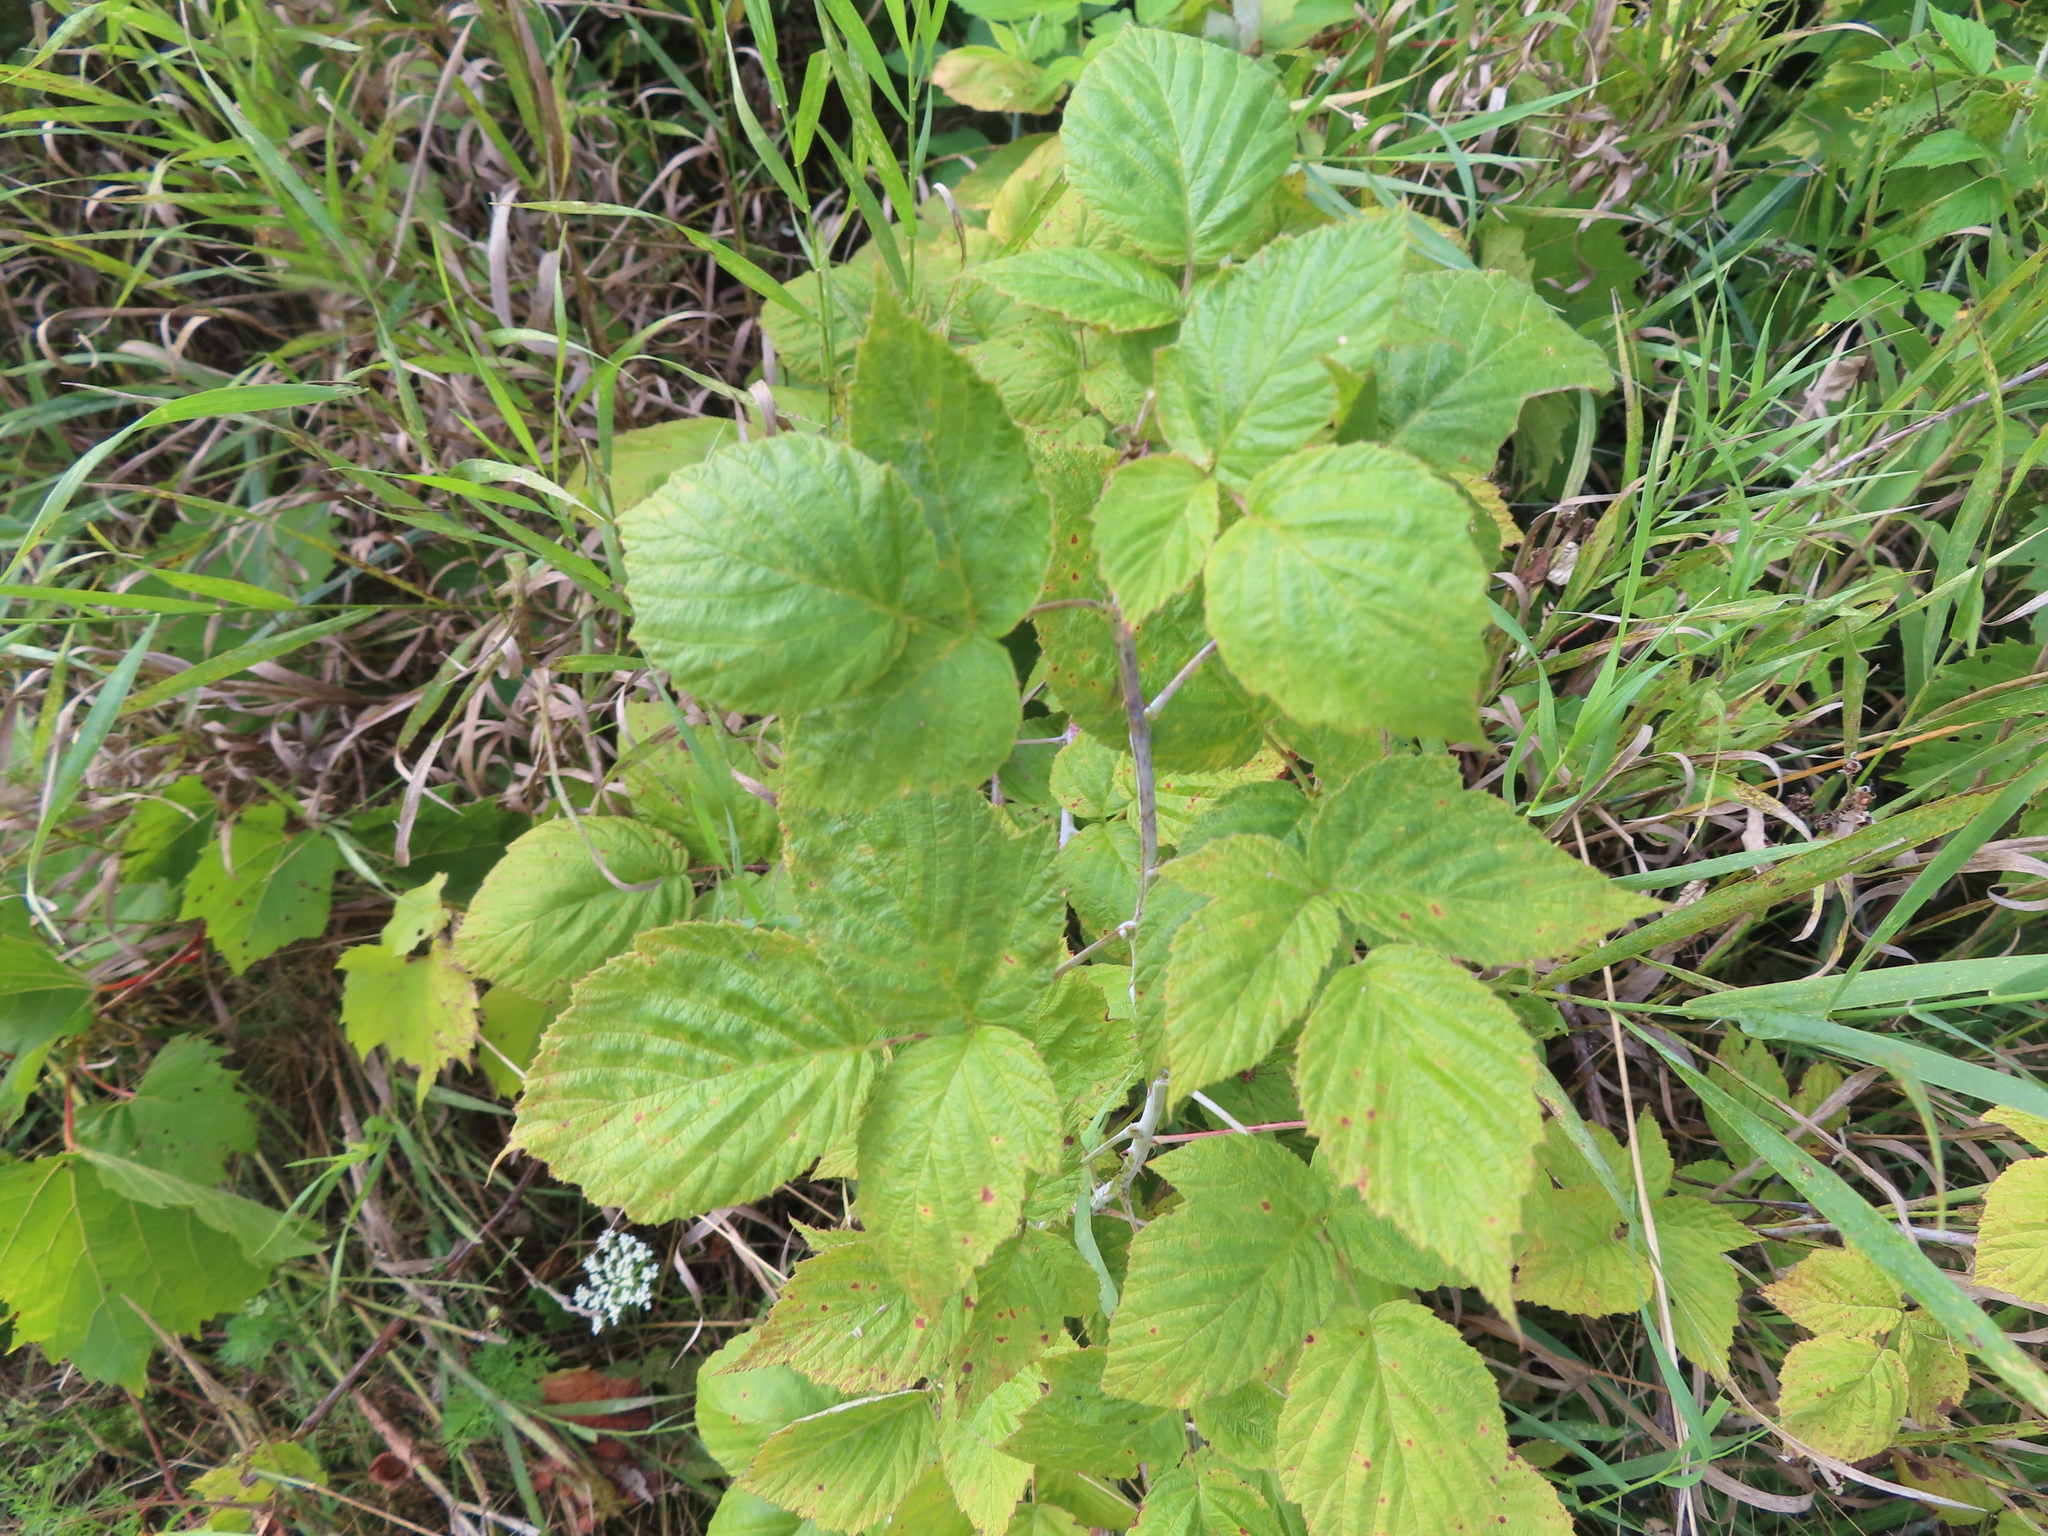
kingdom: Plantae
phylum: Tracheophyta
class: Magnoliopsida
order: Rosales
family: Rosaceae
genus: Rubus
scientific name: Rubus occidentalis
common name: Black raspberry
